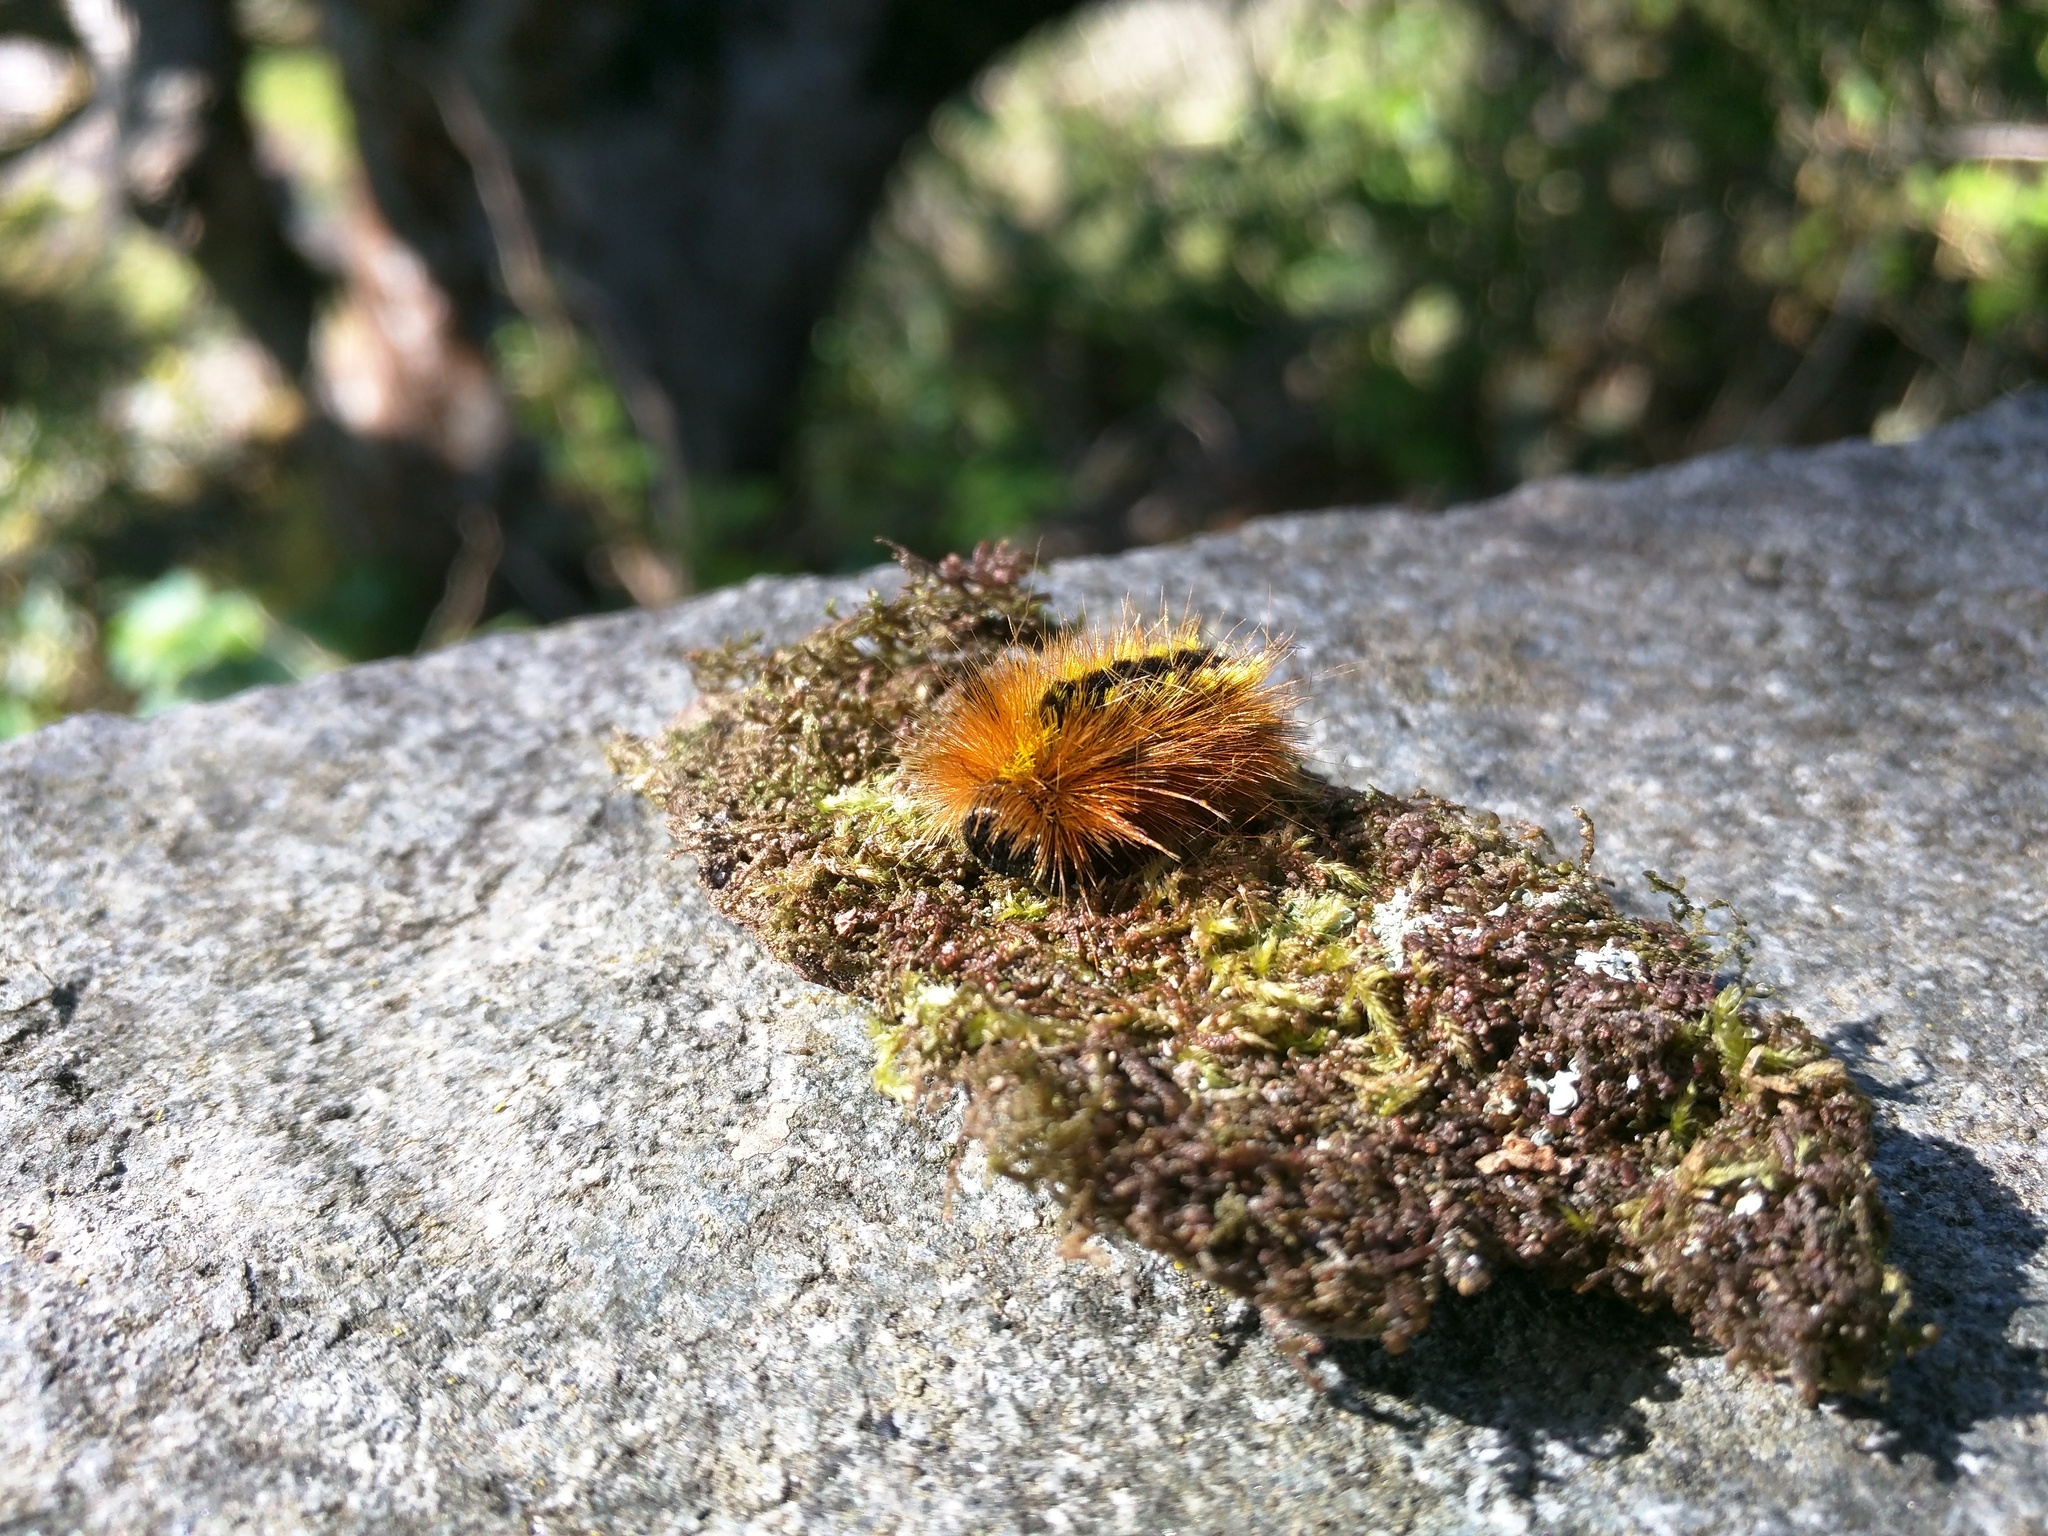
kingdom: Animalia
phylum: Arthropoda
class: Insecta
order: Lepidoptera
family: Erebidae
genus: Lophocampa
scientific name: Lophocampa argentata
